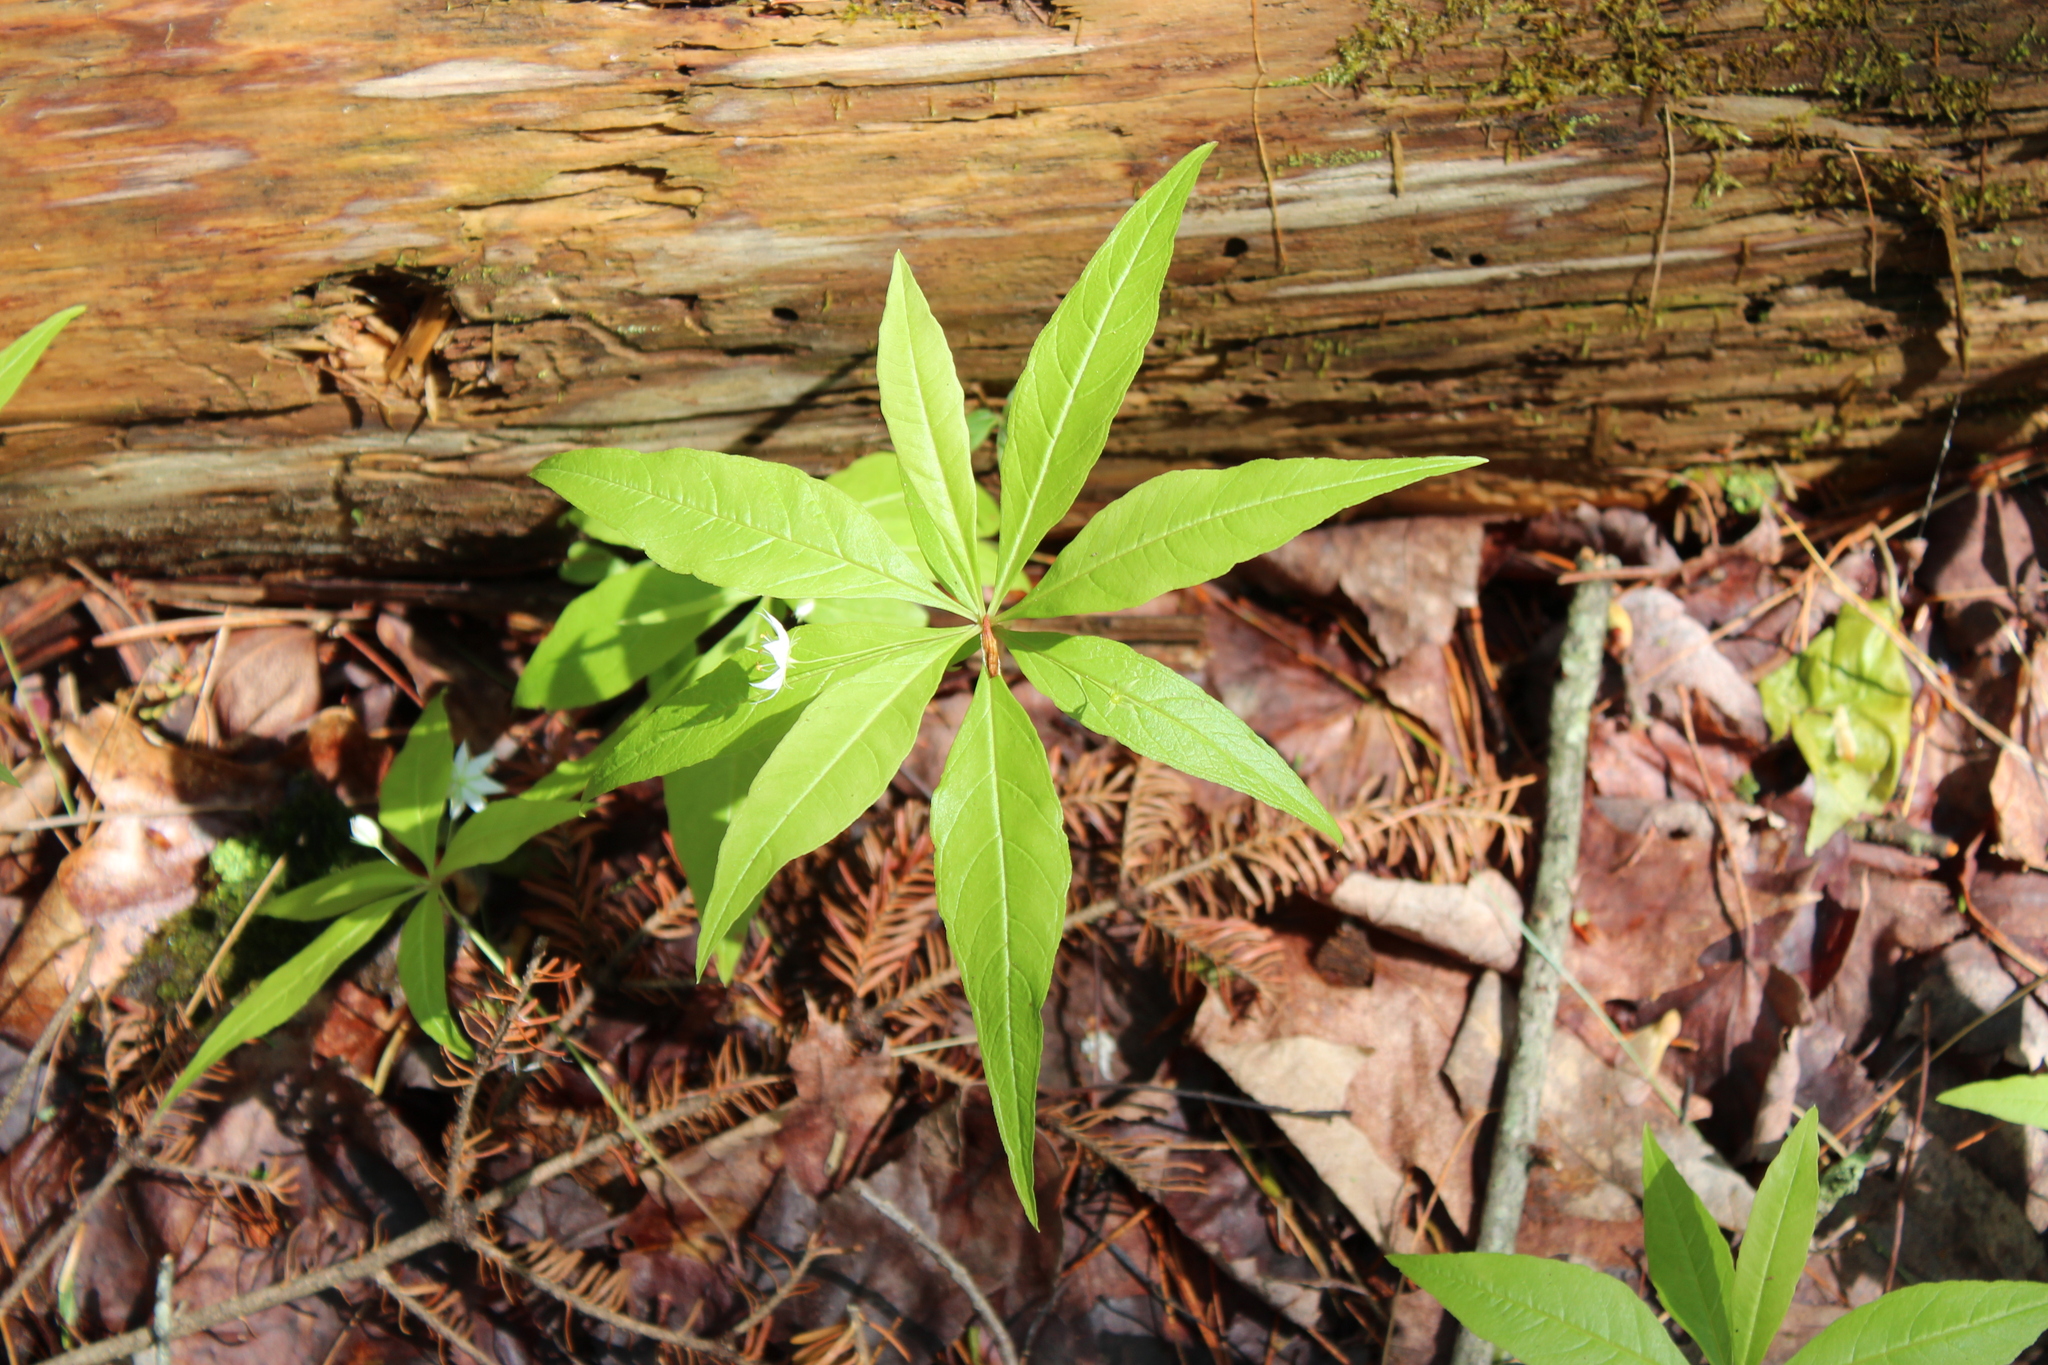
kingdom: Plantae
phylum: Tracheophyta
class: Magnoliopsida
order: Ericales
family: Primulaceae
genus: Lysimachia
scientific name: Lysimachia borealis
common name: American starflower
